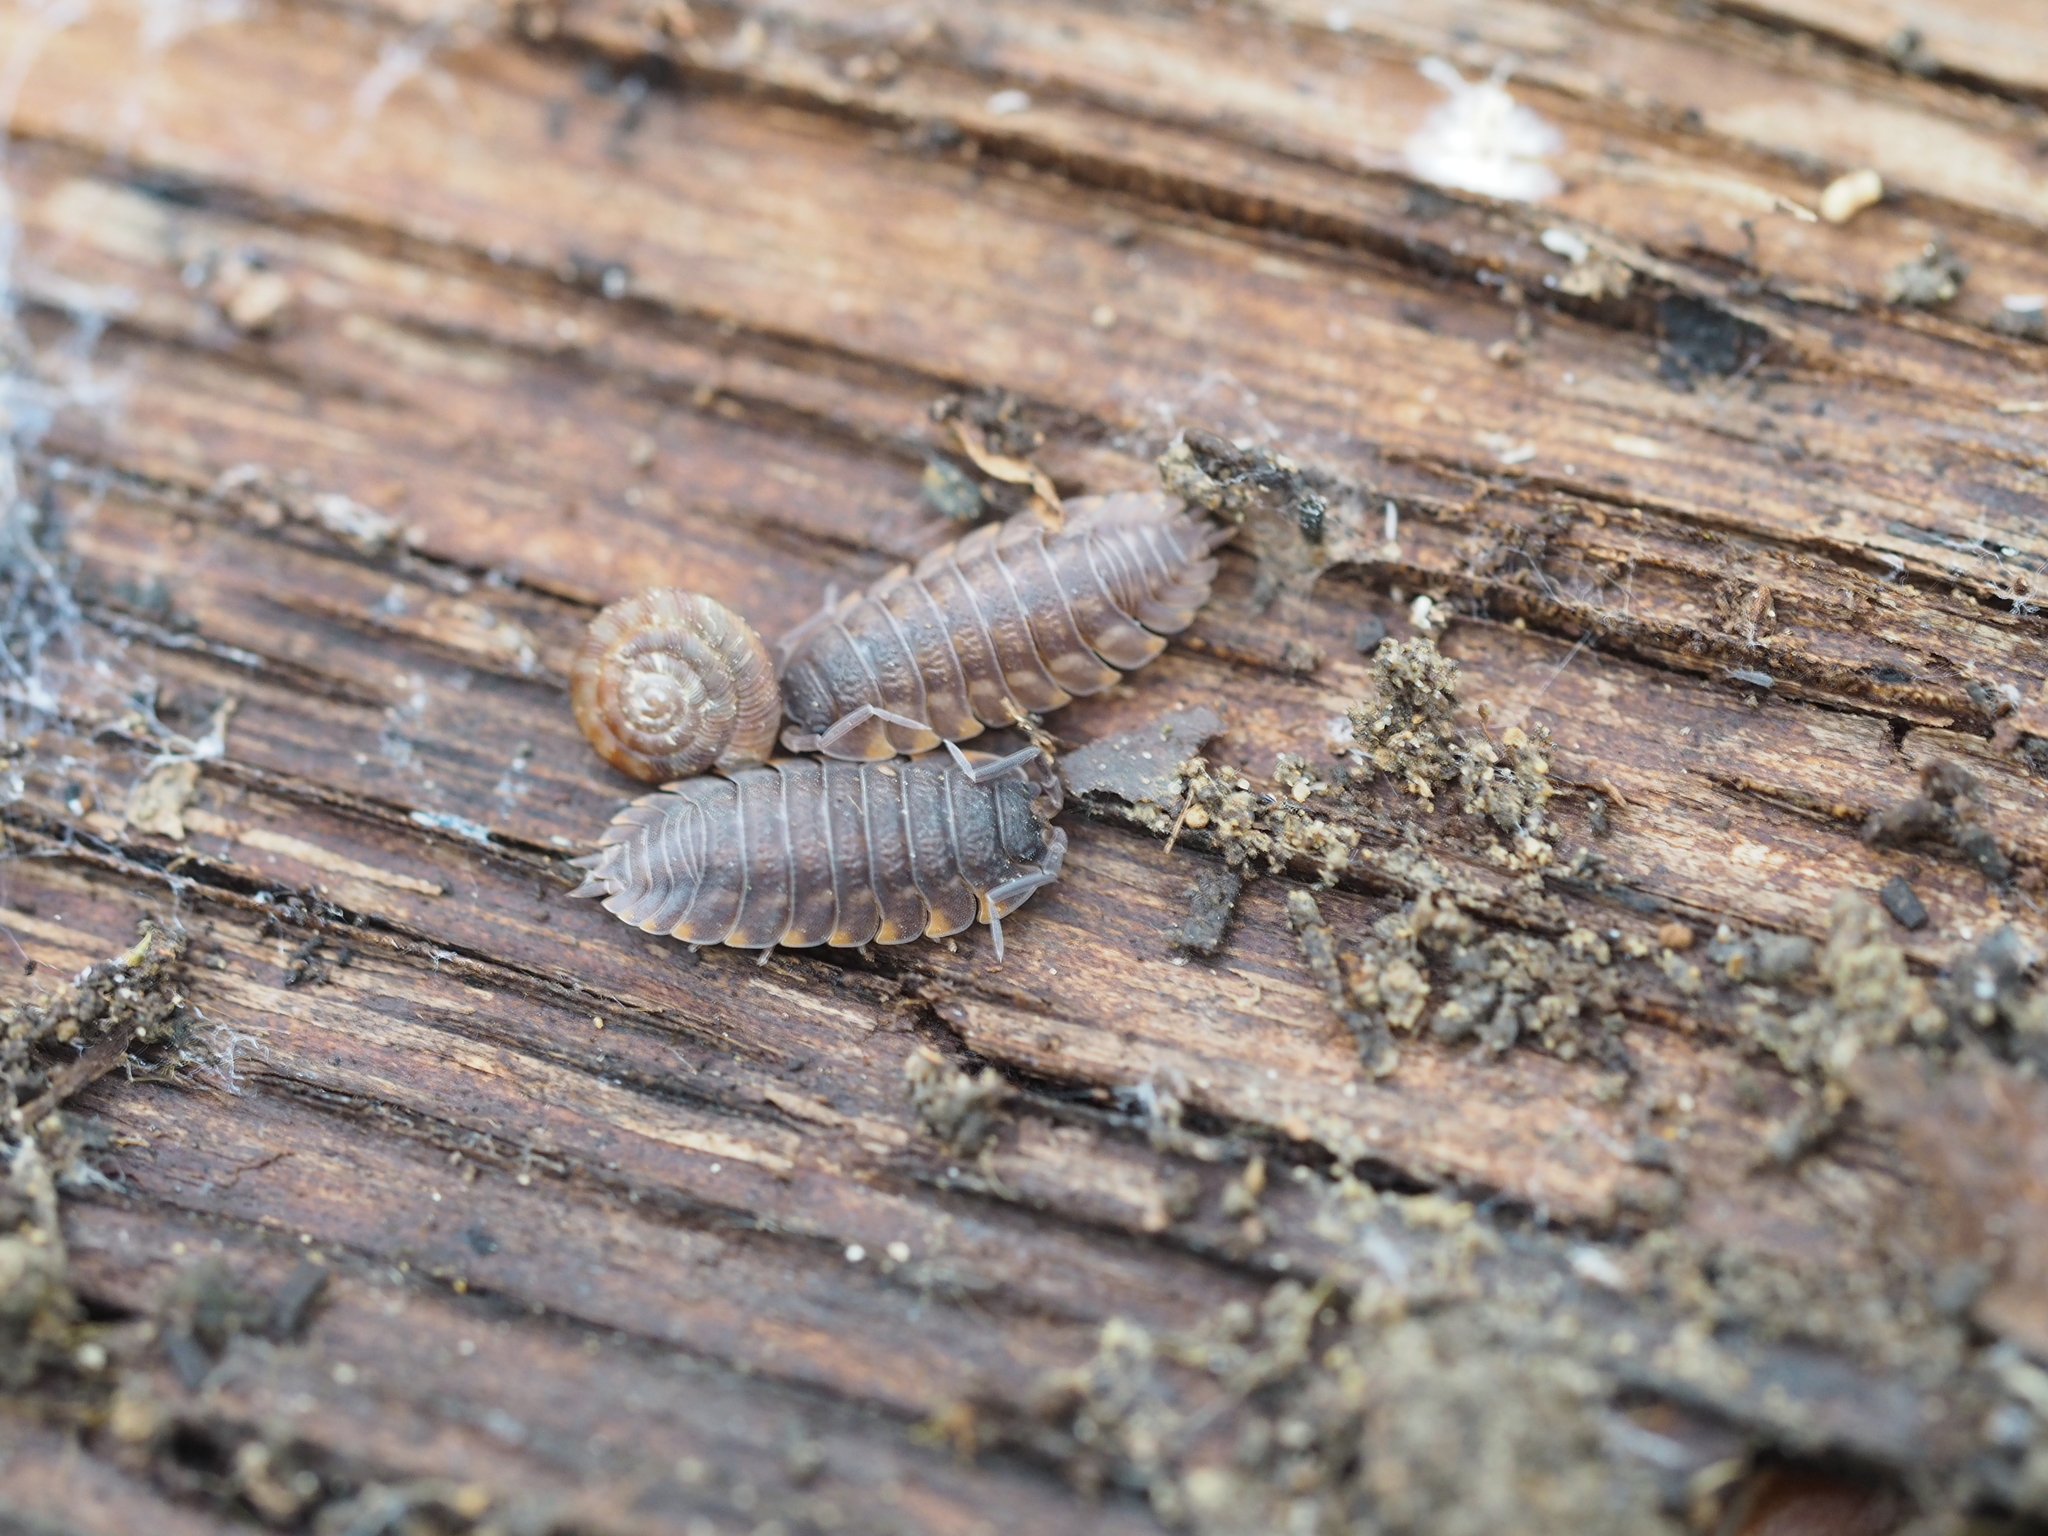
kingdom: Animalia
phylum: Arthropoda
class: Malacostraca
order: Isopoda
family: Trachelipodidae
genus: Trachelipus
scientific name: Trachelipus ratzeburgii
